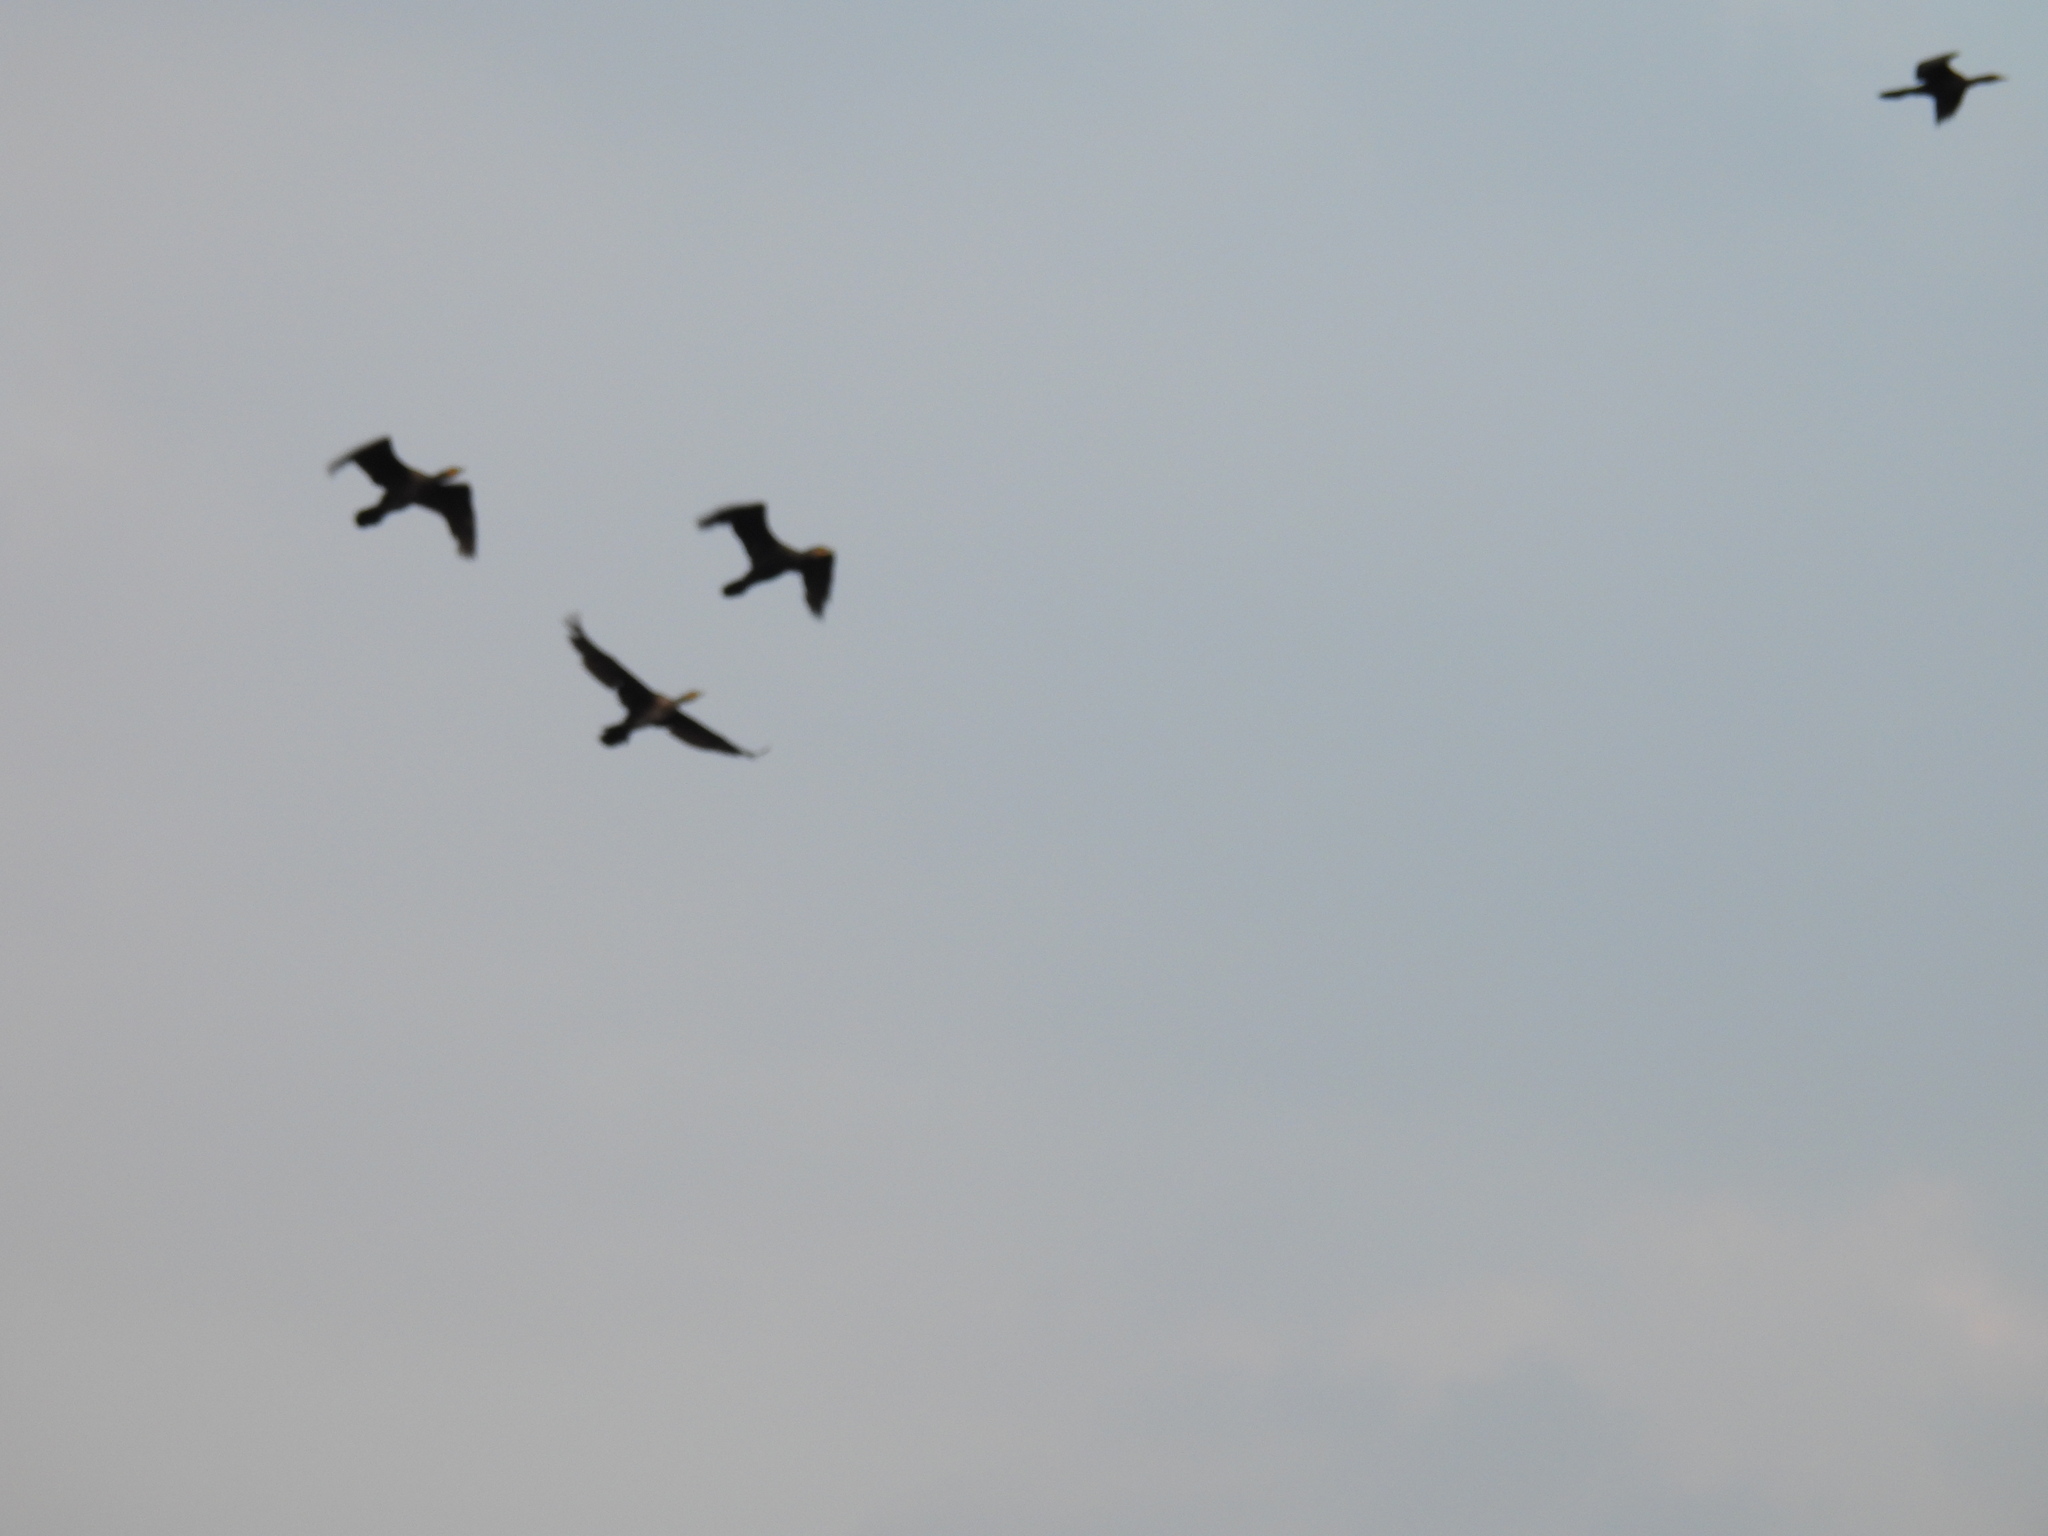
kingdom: Animalia
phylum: Chordata
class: Aves
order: Suliformes
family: Phalacrocoracidae
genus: Phalacrocorax
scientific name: Phalacrocorax carbo
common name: Great cormorant
